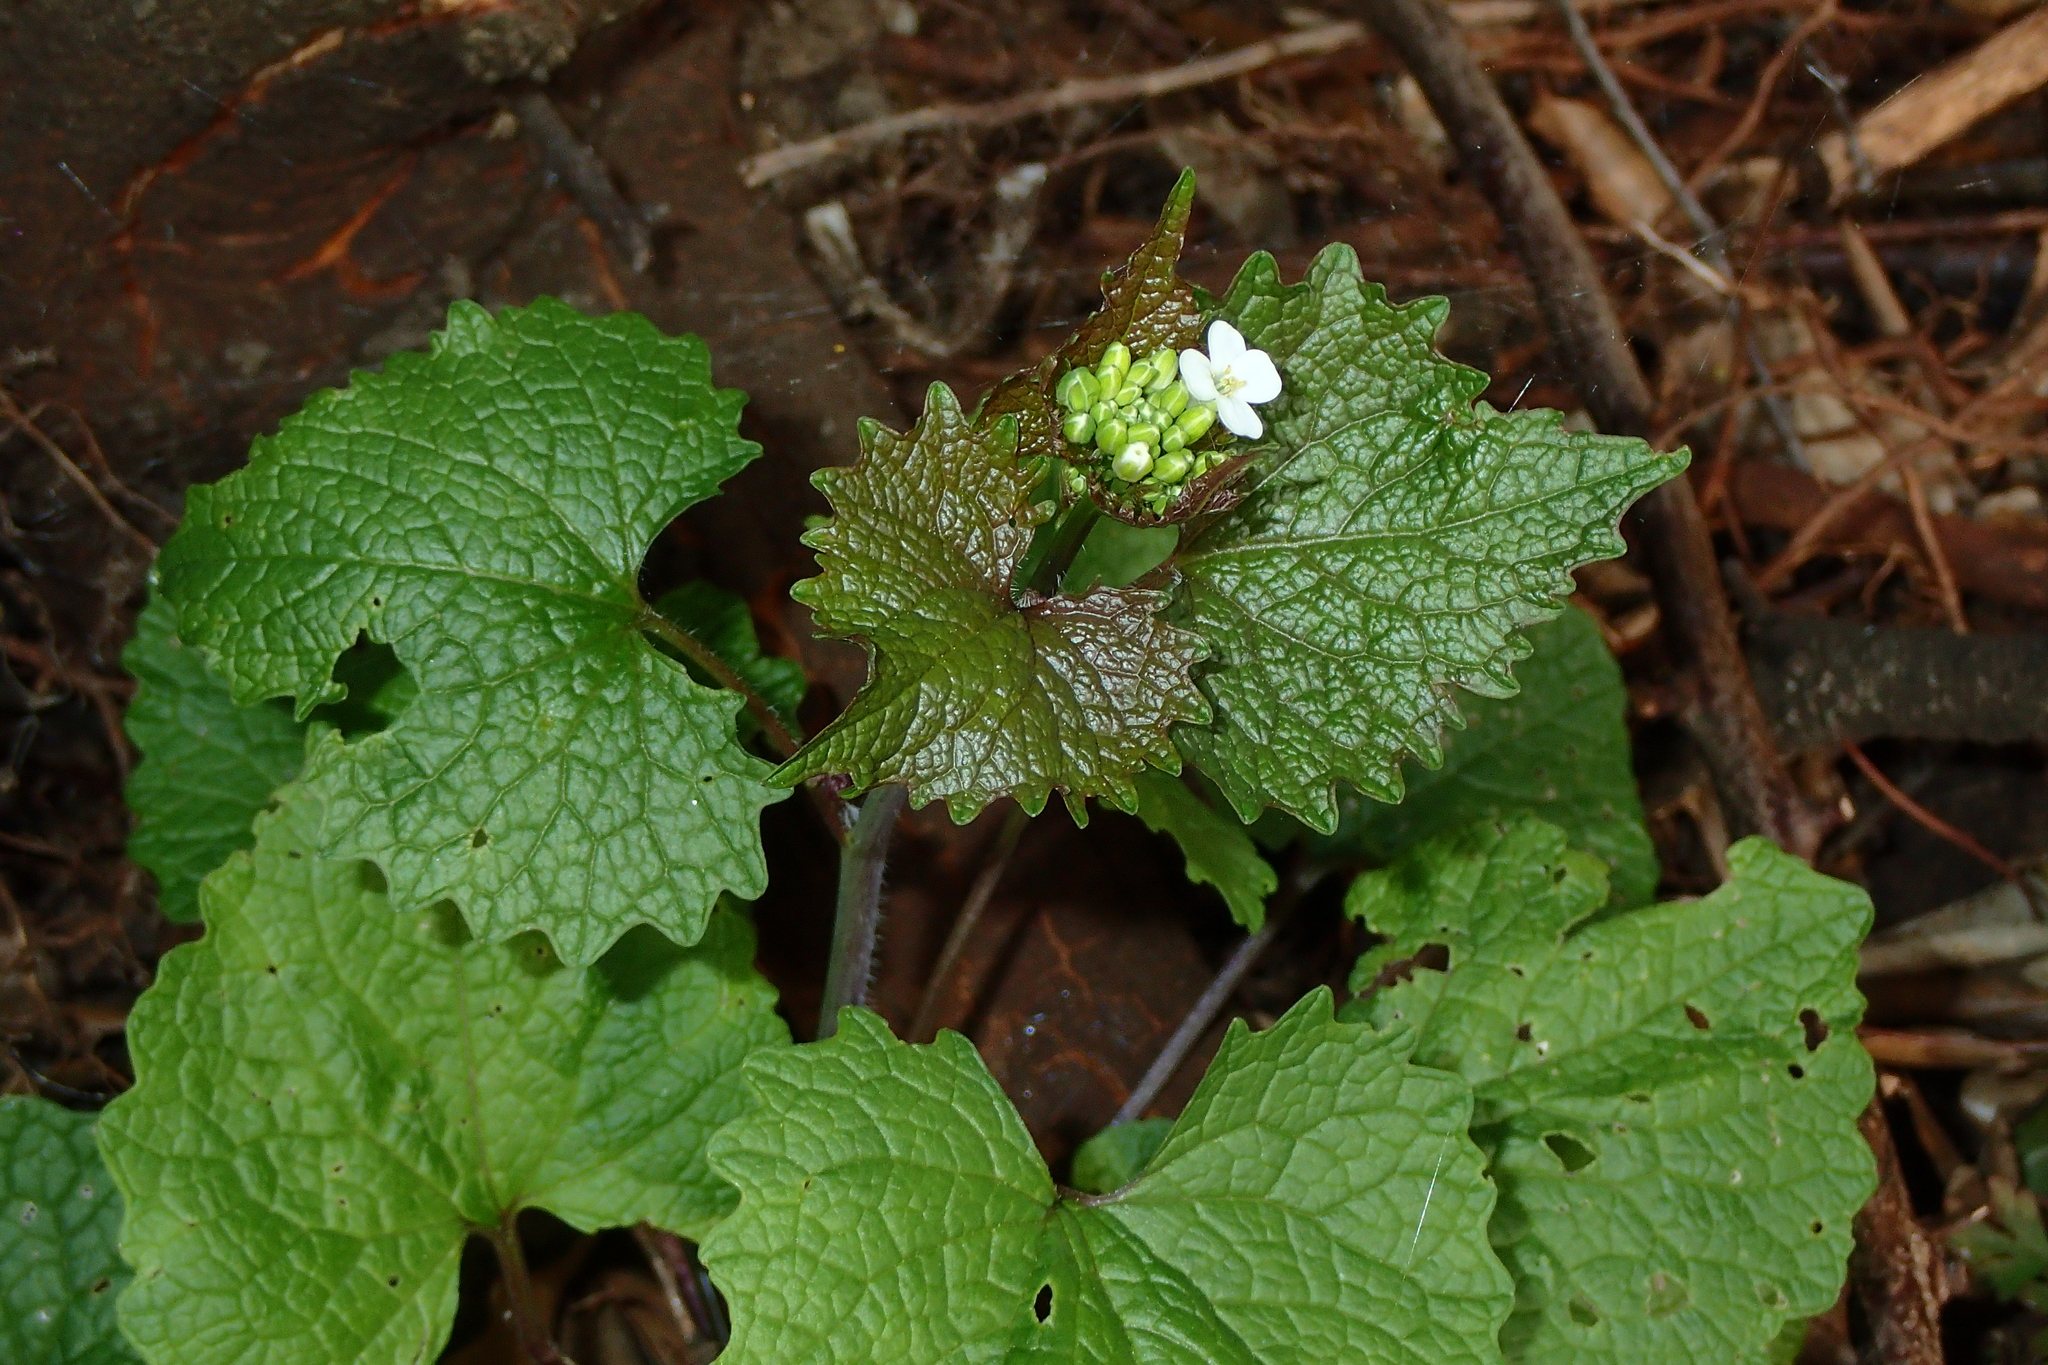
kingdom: Plantae
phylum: Tracheophyta
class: Magnoliopsida
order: Brassicales
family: Brassicaceae
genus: Alliaria
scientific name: Alliaria petiolata
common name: Garlic mustard
